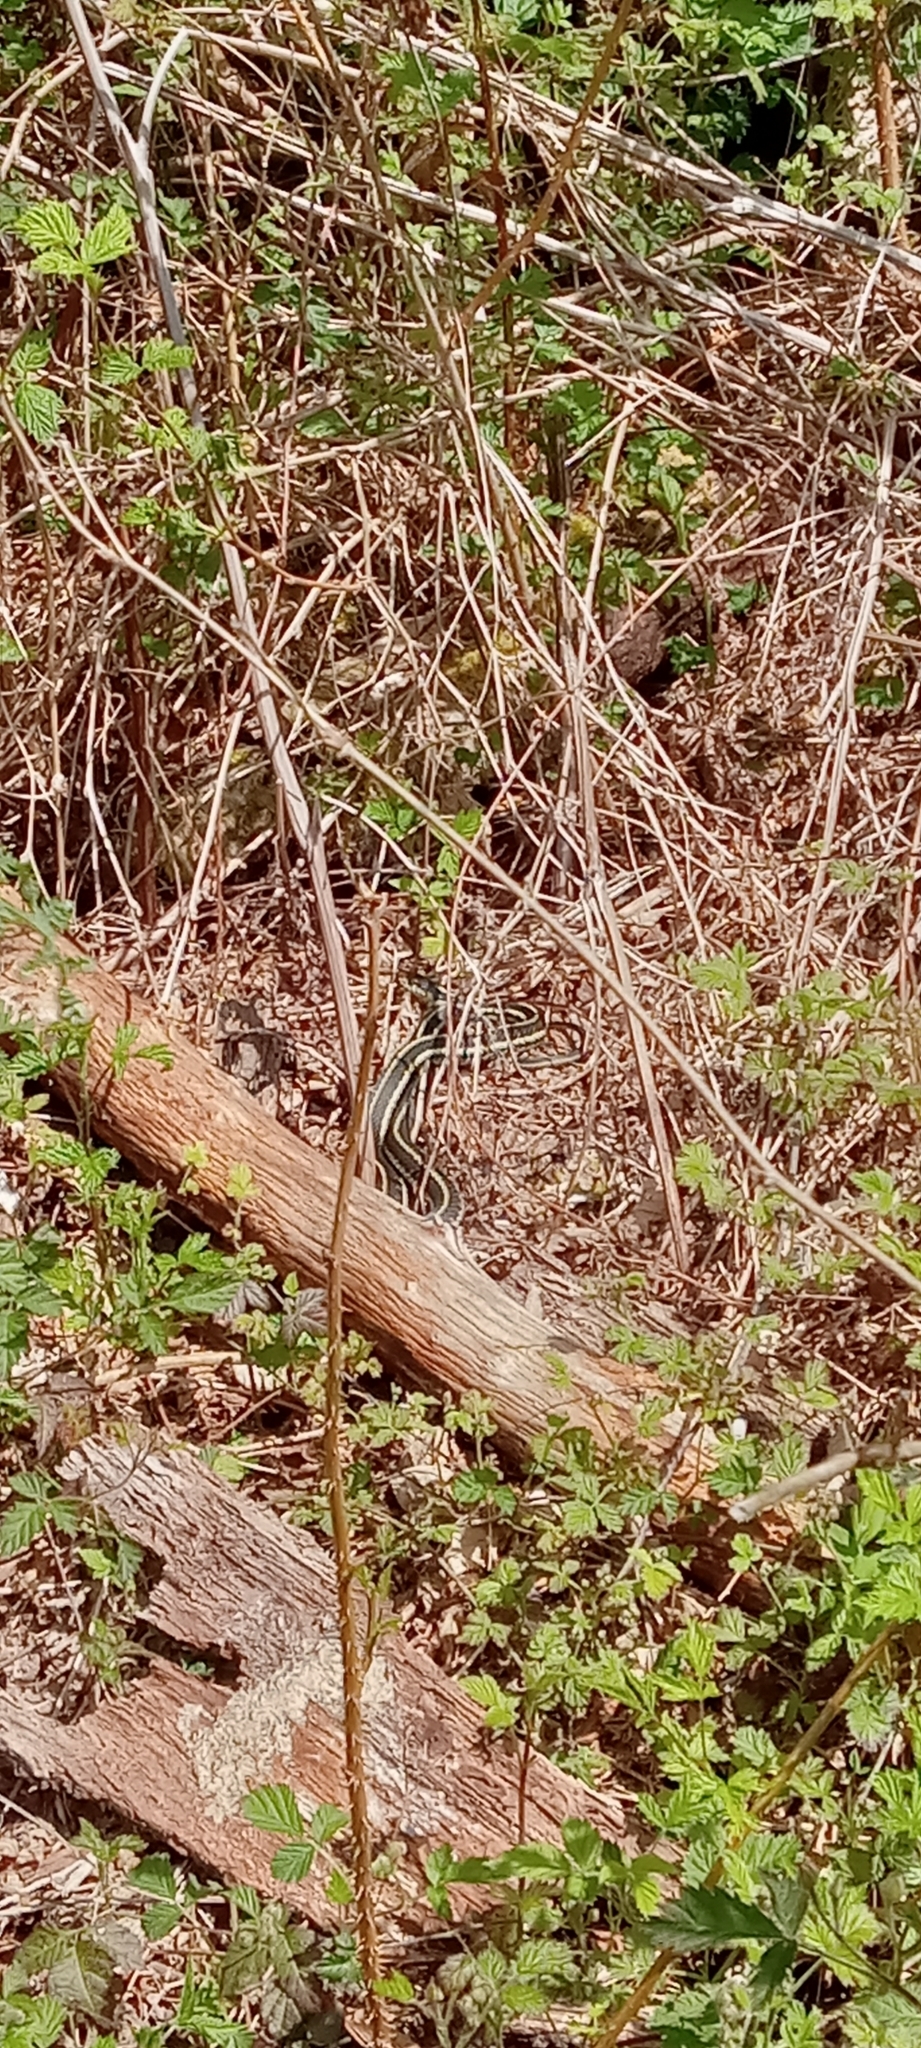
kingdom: Animalia
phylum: Chordata
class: Squamata
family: Colubridae
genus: Thamnophis
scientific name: Thamnophis sirtalis
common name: Common garter snake
